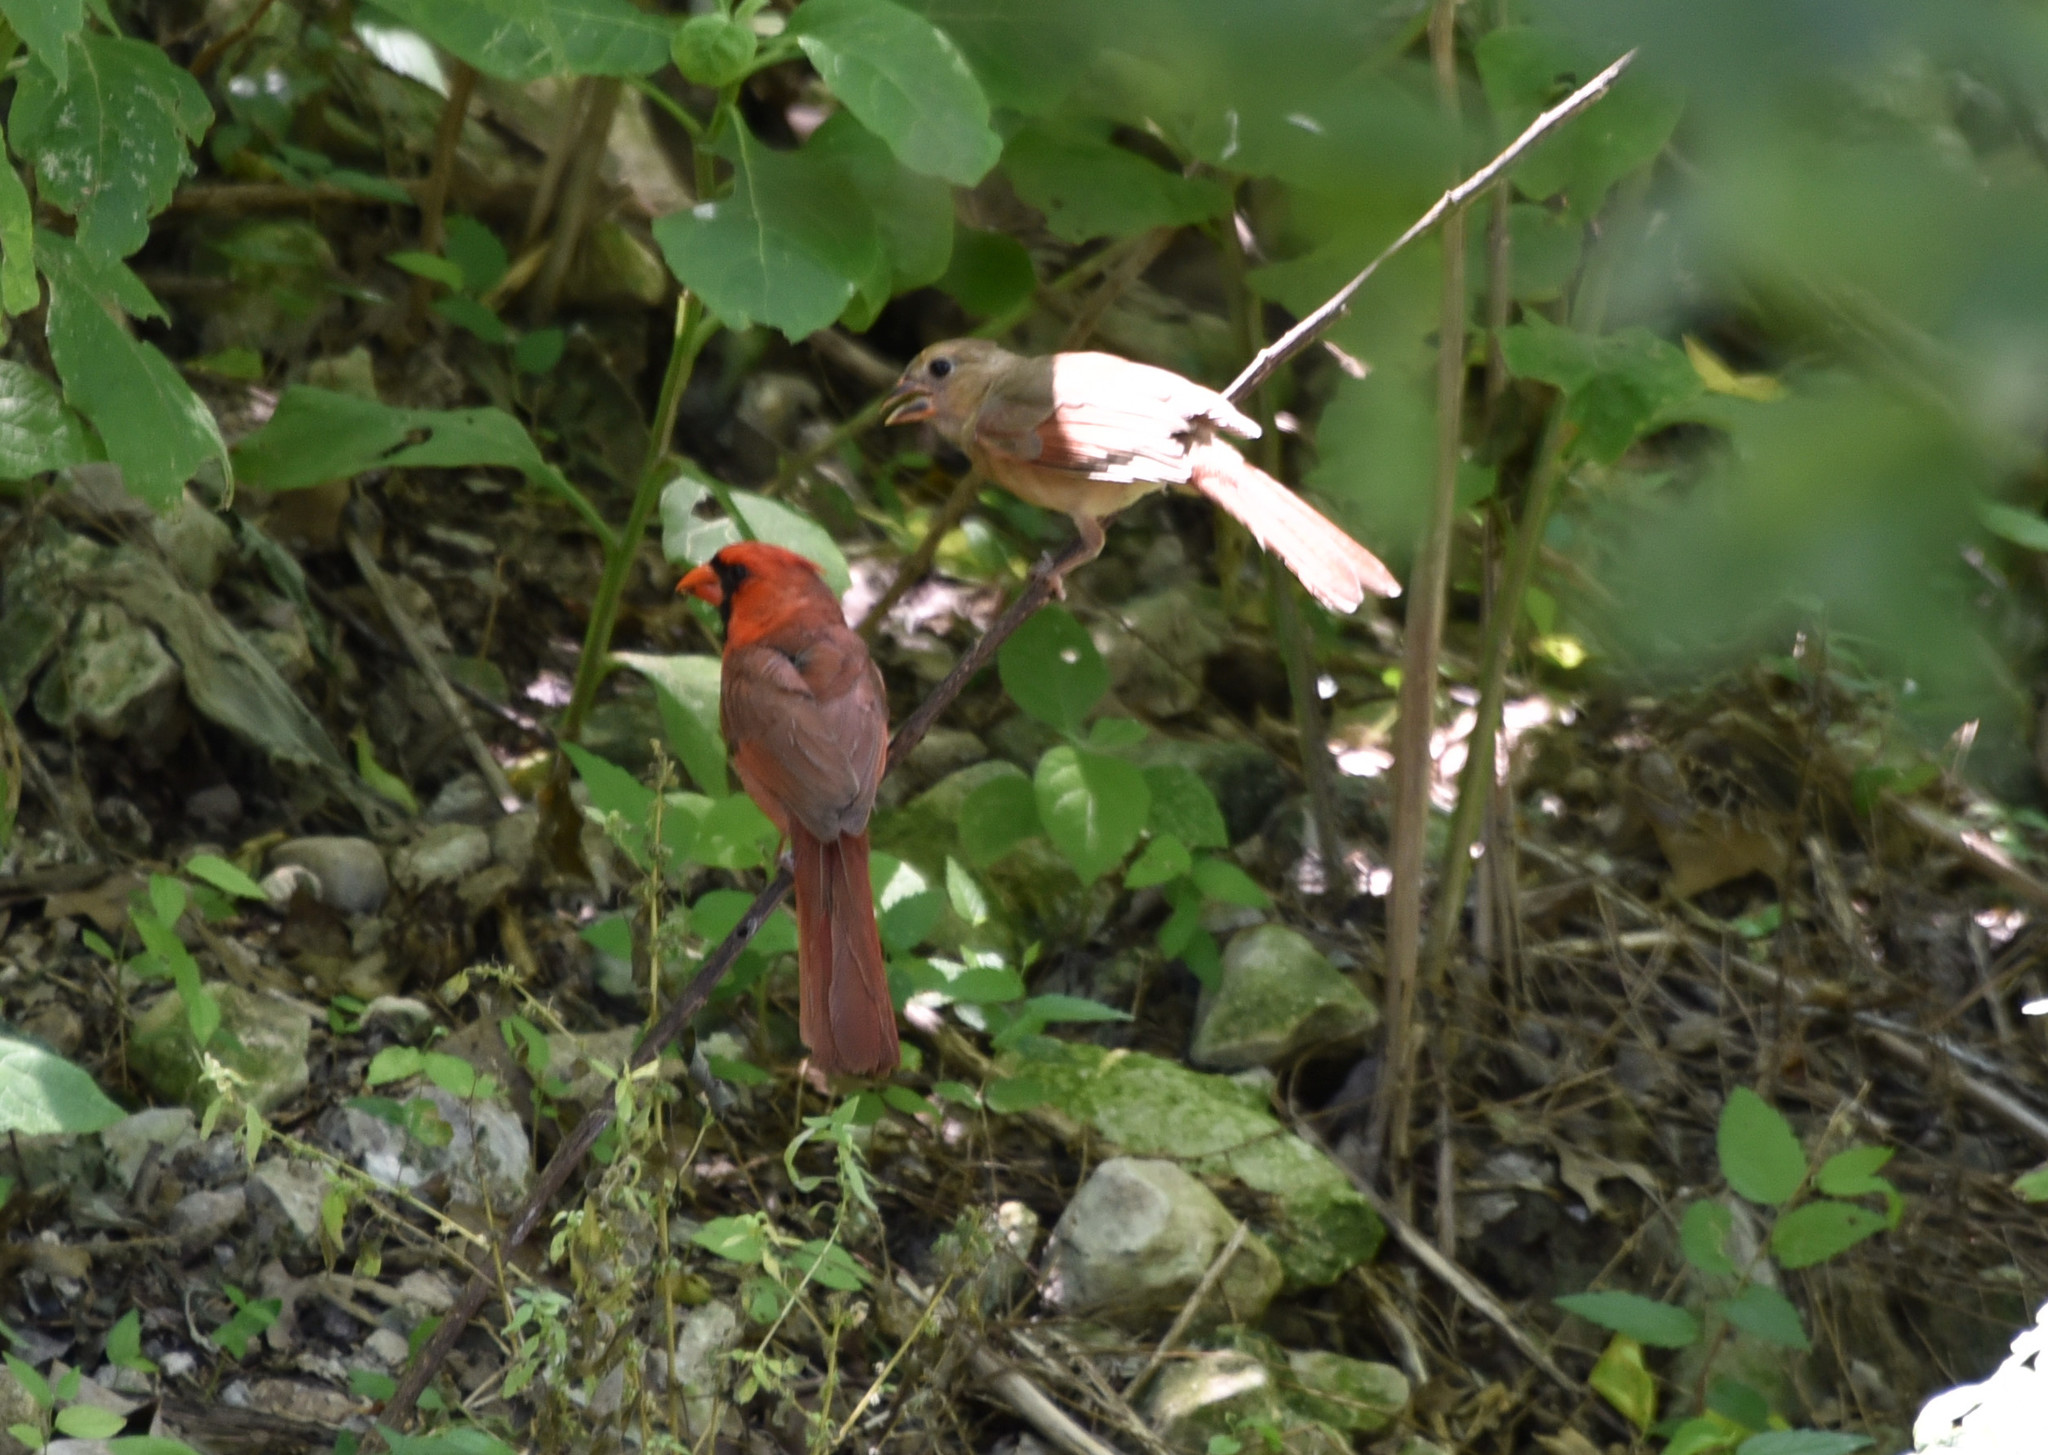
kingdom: Animalia
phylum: Chordata
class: Aves
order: Passeriformes
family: Cardinalidae
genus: Cardinalis
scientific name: Cardinalis cardinalis
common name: Northern cardinal
